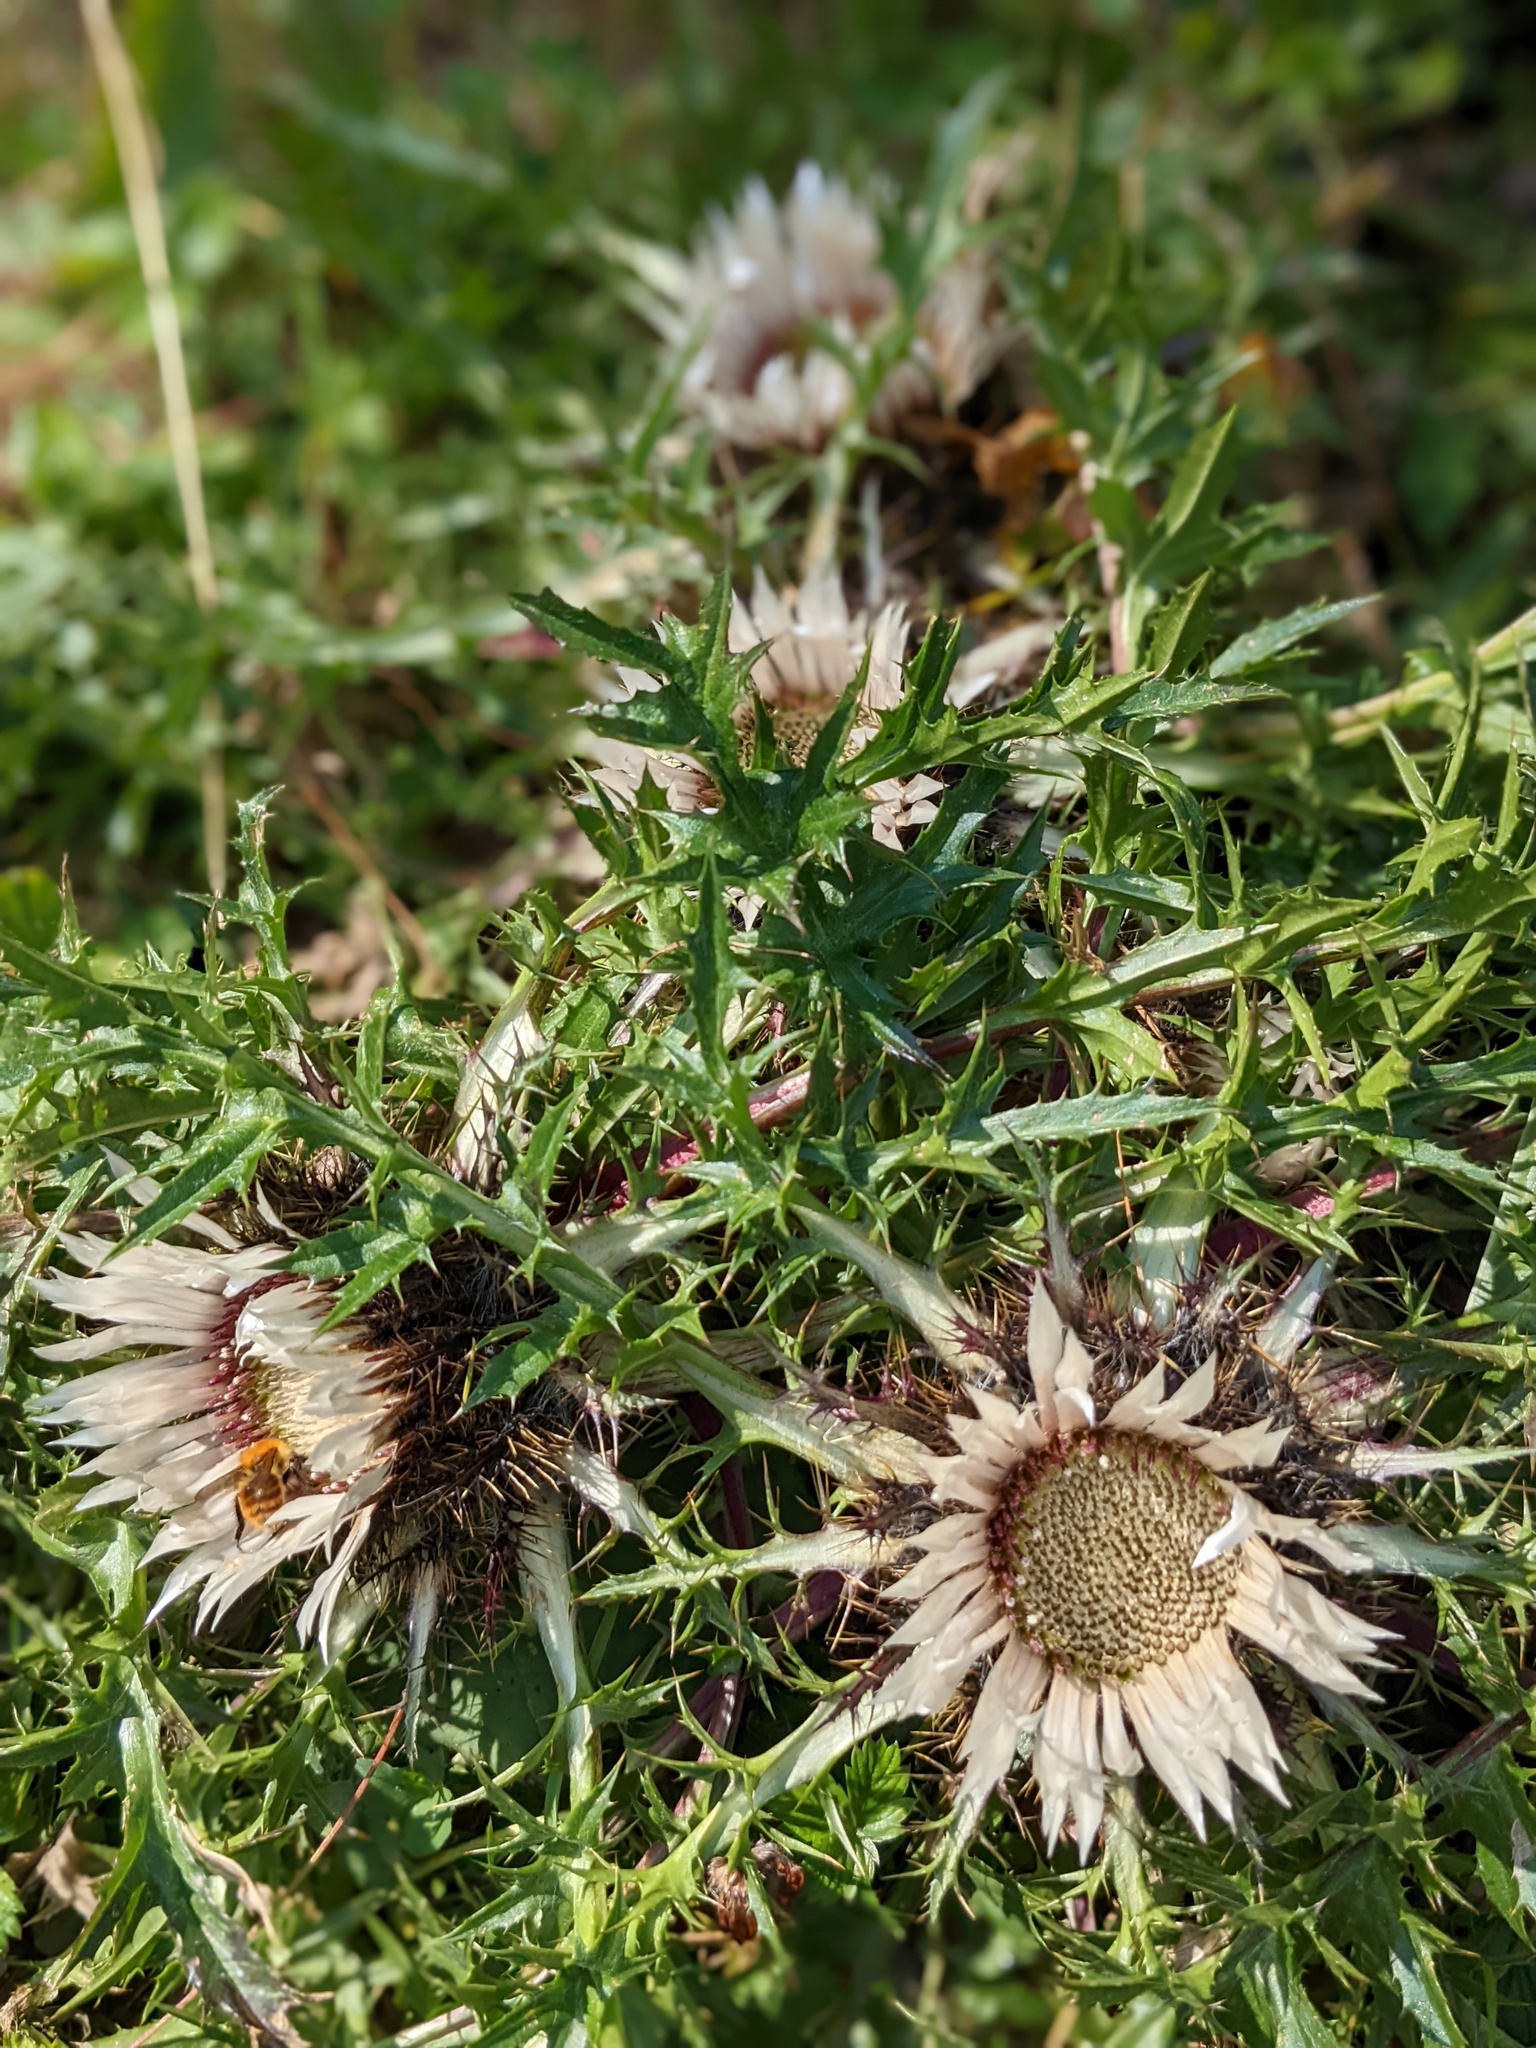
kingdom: Plantae
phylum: Tracheophyta
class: Magnoliopsida
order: Asterales
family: Asteraceae
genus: Carlina
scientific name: Carlina acaulis
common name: Stemless carline thistle
